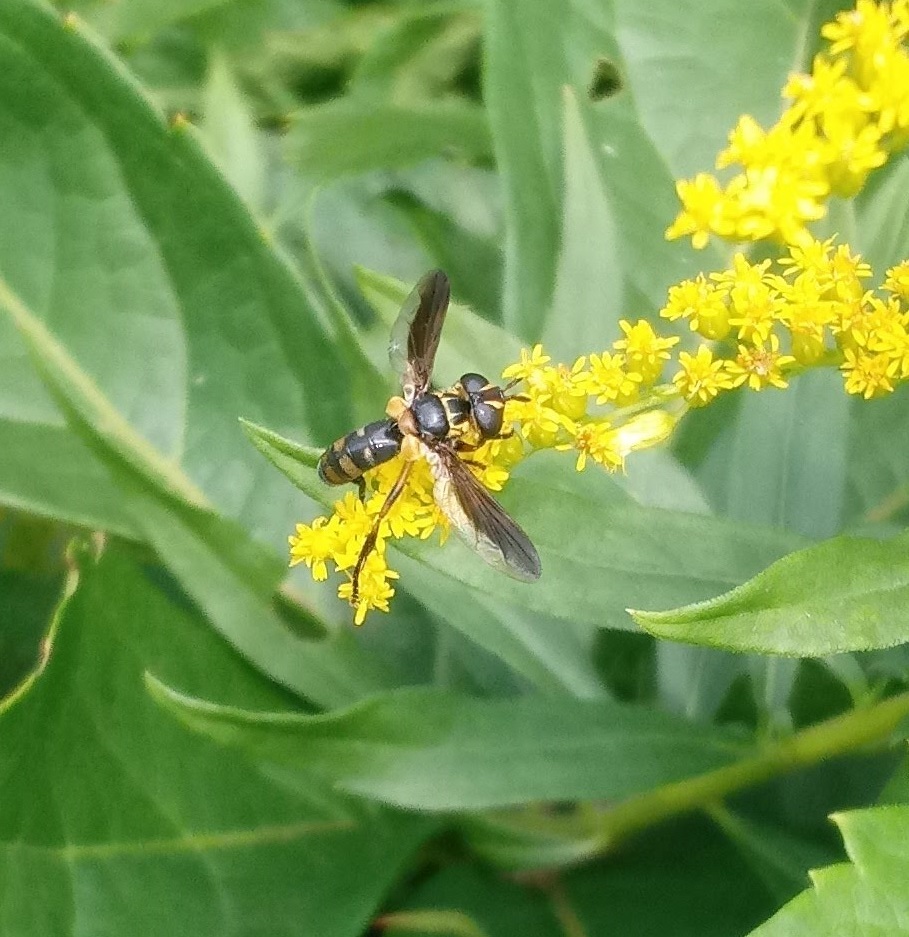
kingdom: Animalia
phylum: Arthropoda
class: Insecta
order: Diptera
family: Tachinidae
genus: Trichopoda
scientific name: Trichopoda plumipes
